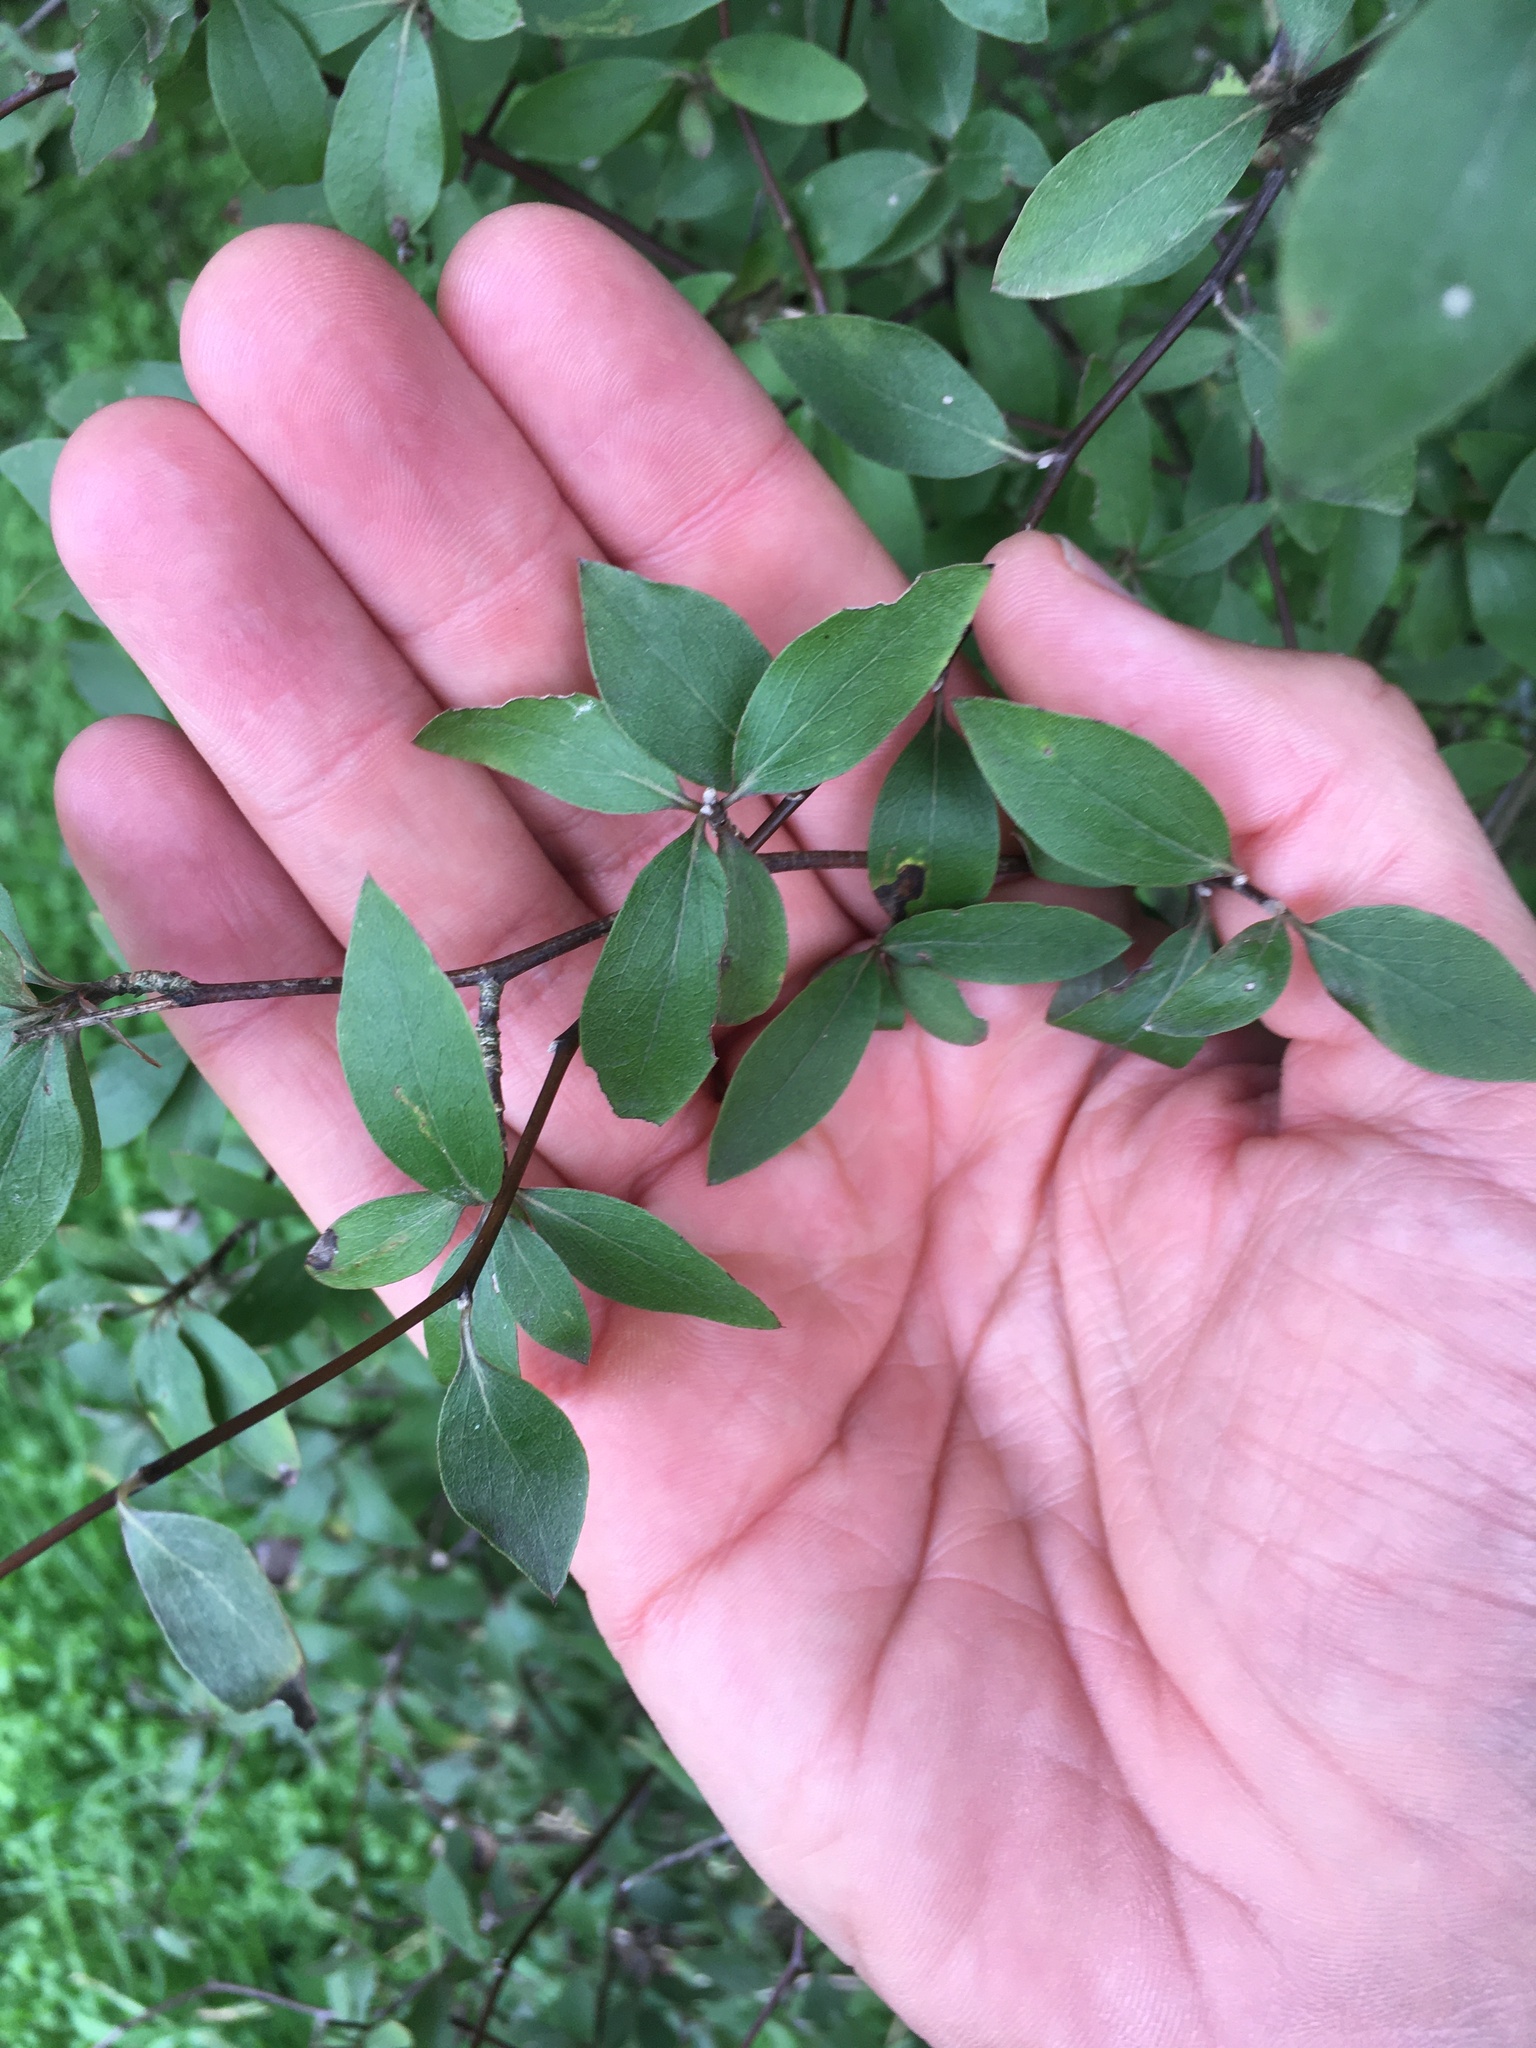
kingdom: Plantae
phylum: Tracheophyta
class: Magnoliopsida
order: Asterales
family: Asteraceae
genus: Olearia
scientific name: Olearia fragrantissima
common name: Fragrant tree daisy
